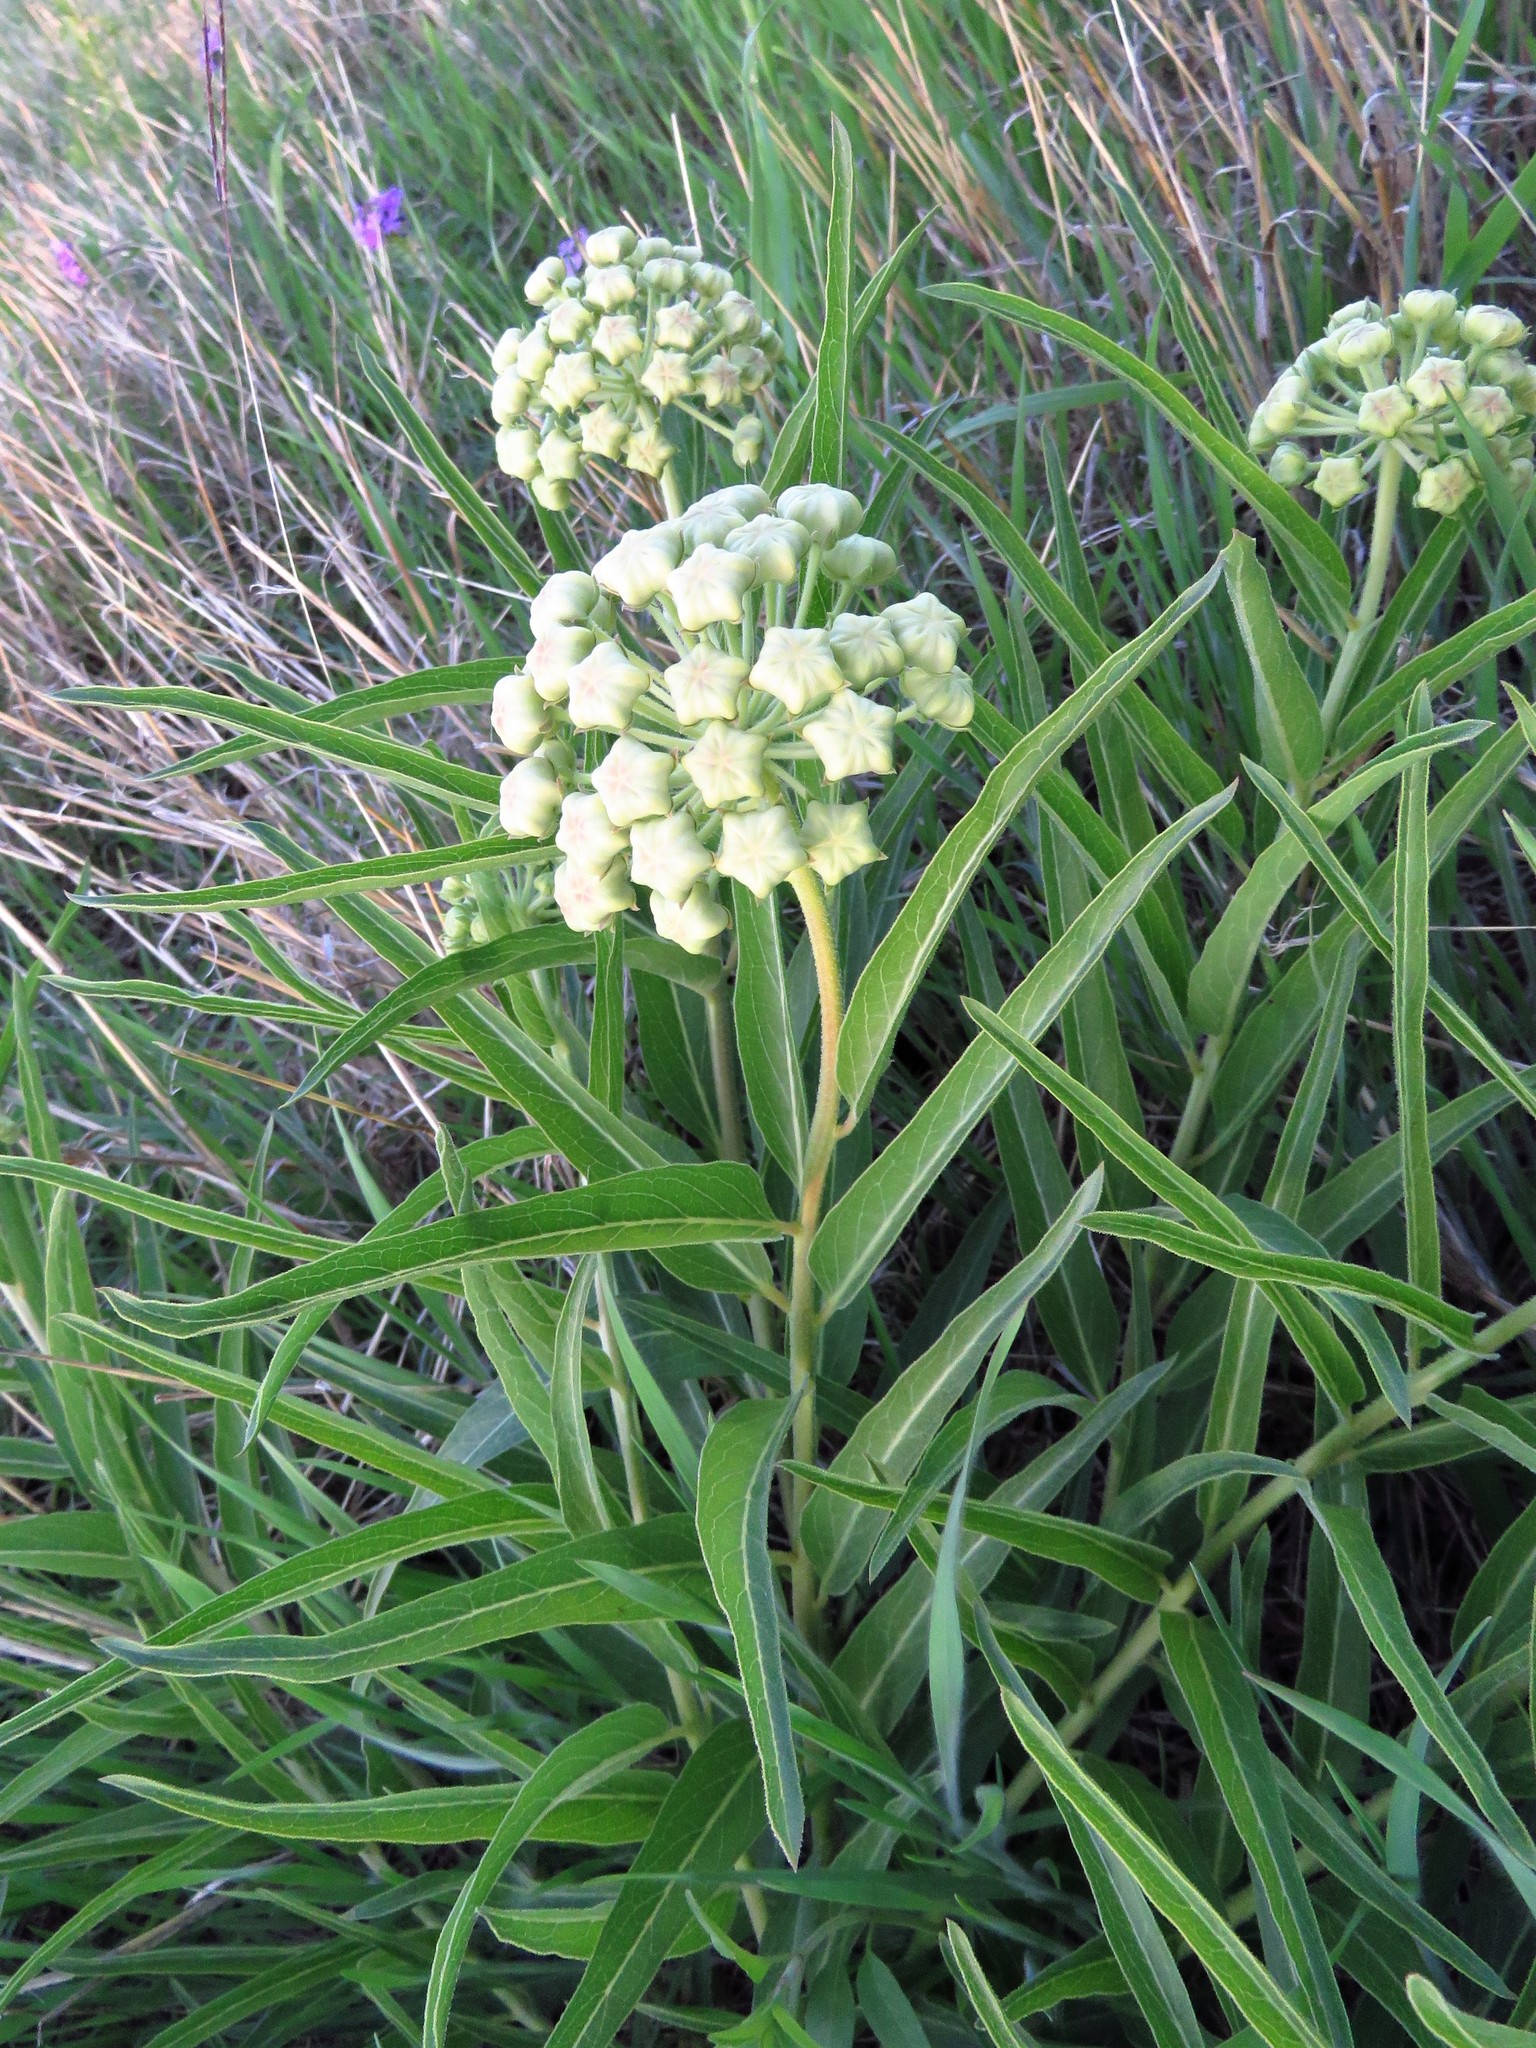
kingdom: Plantae
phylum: Tracheophyta
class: Magnoliopsida
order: Gentianales
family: Apocynaceae
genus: Asclepias
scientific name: Asclepias asperula
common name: Antelope horns
